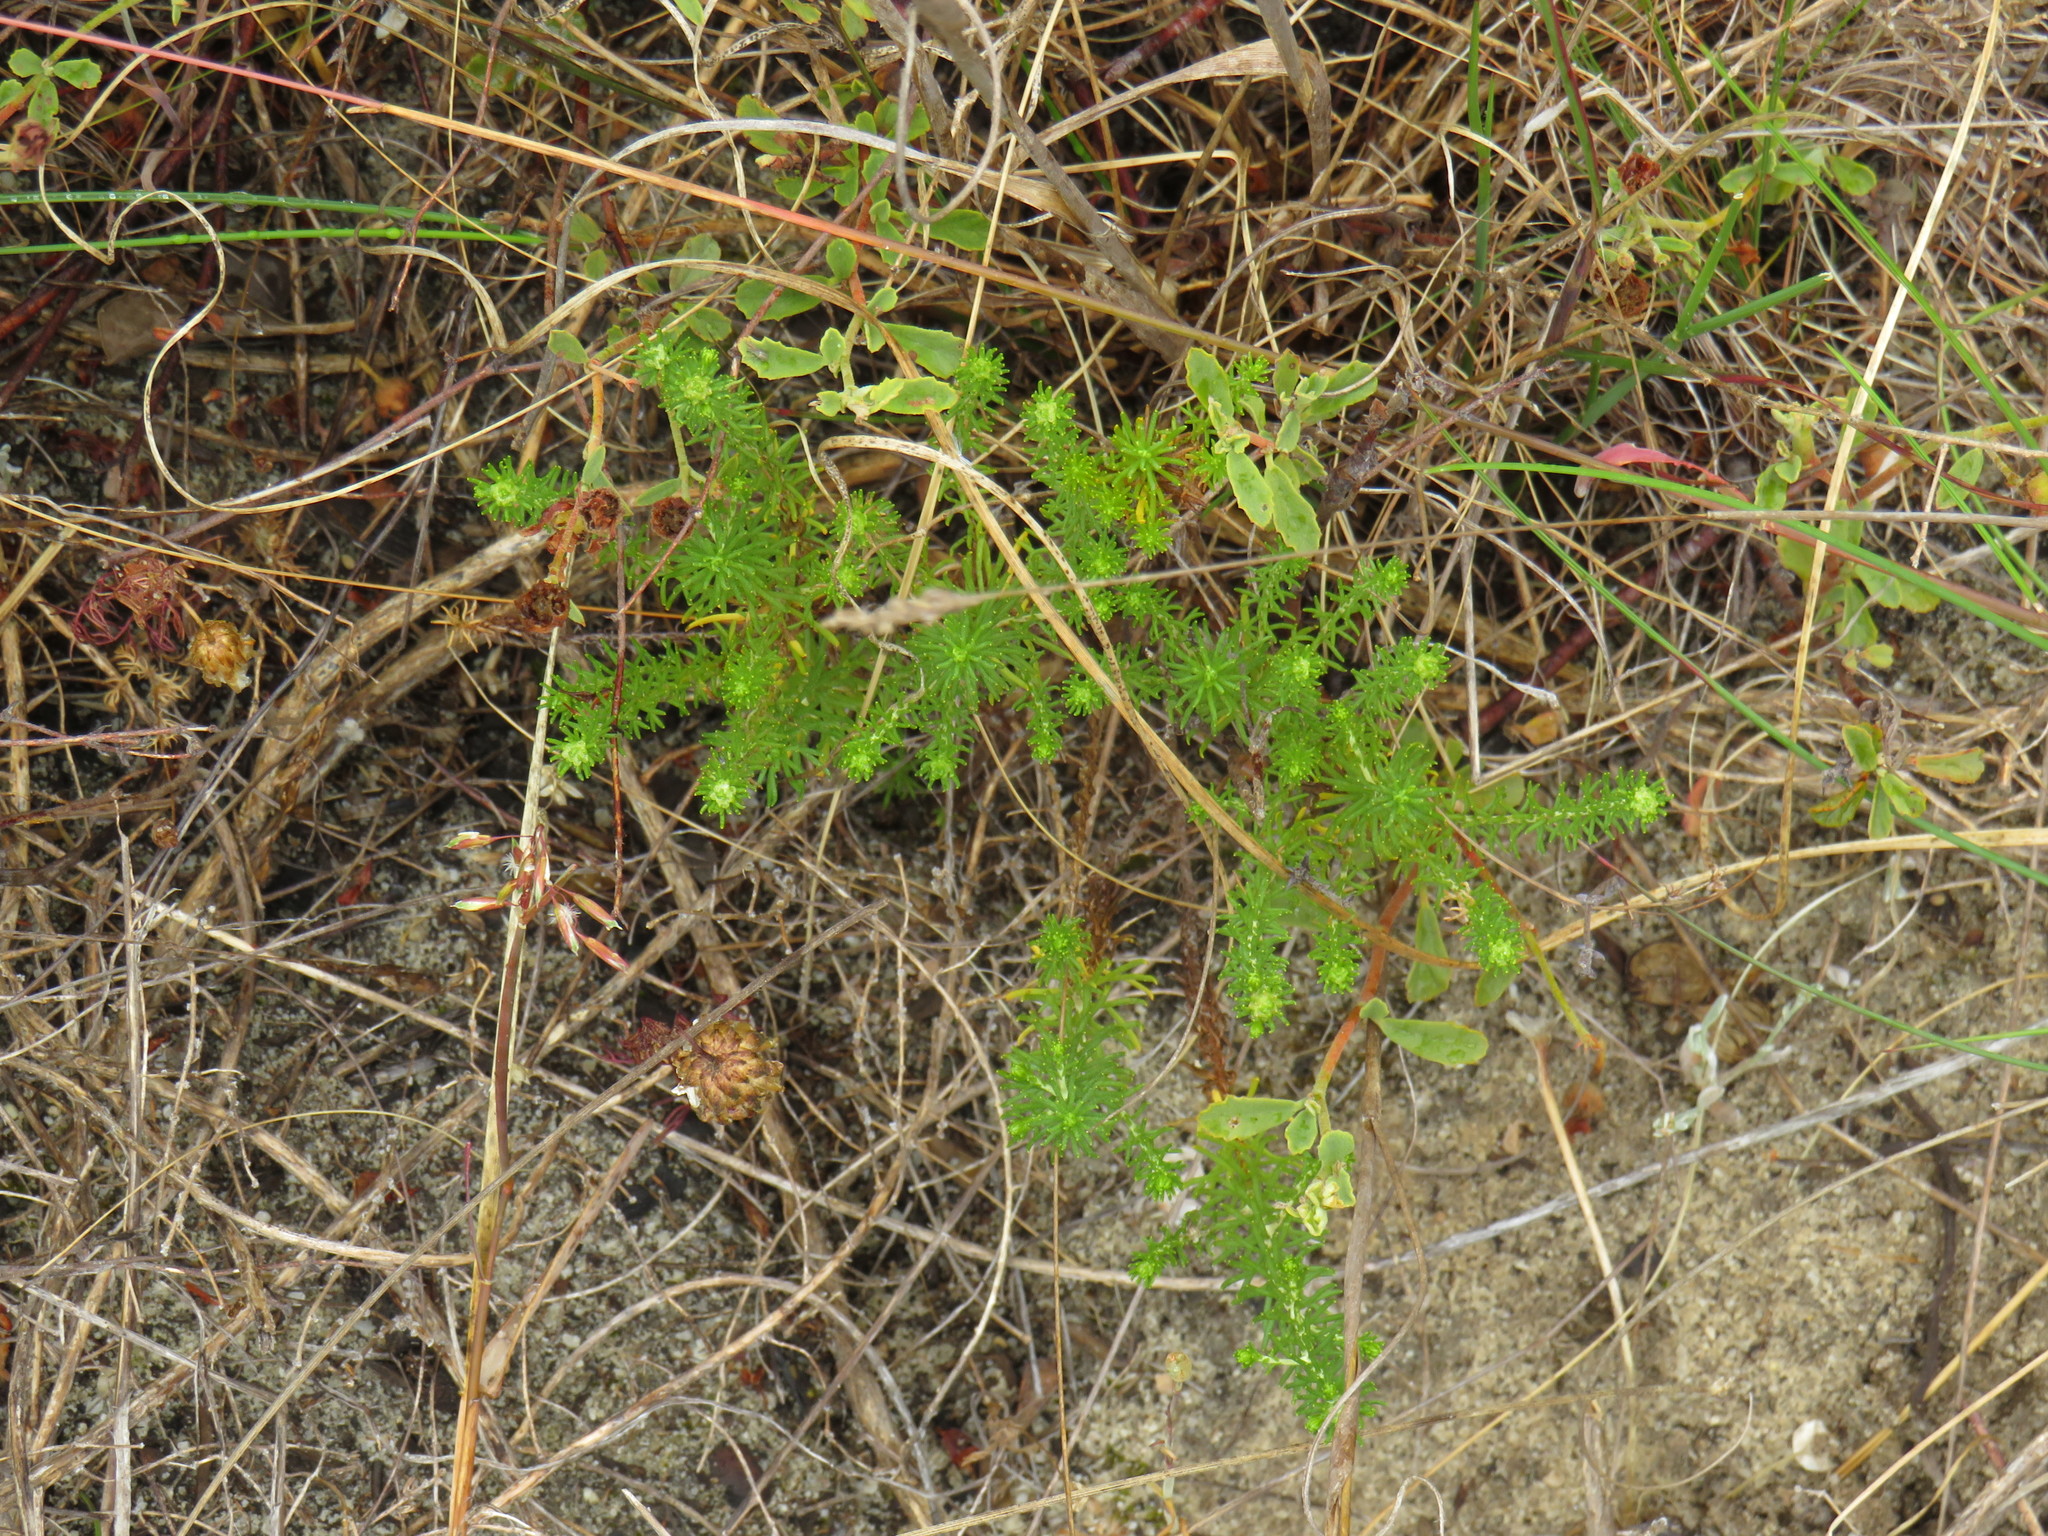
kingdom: Plantae
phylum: Tracheophyta
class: Magnoliopsida
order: Asterales
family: Asteraceae
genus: Helichrysum
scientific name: Helichrysum niveum
